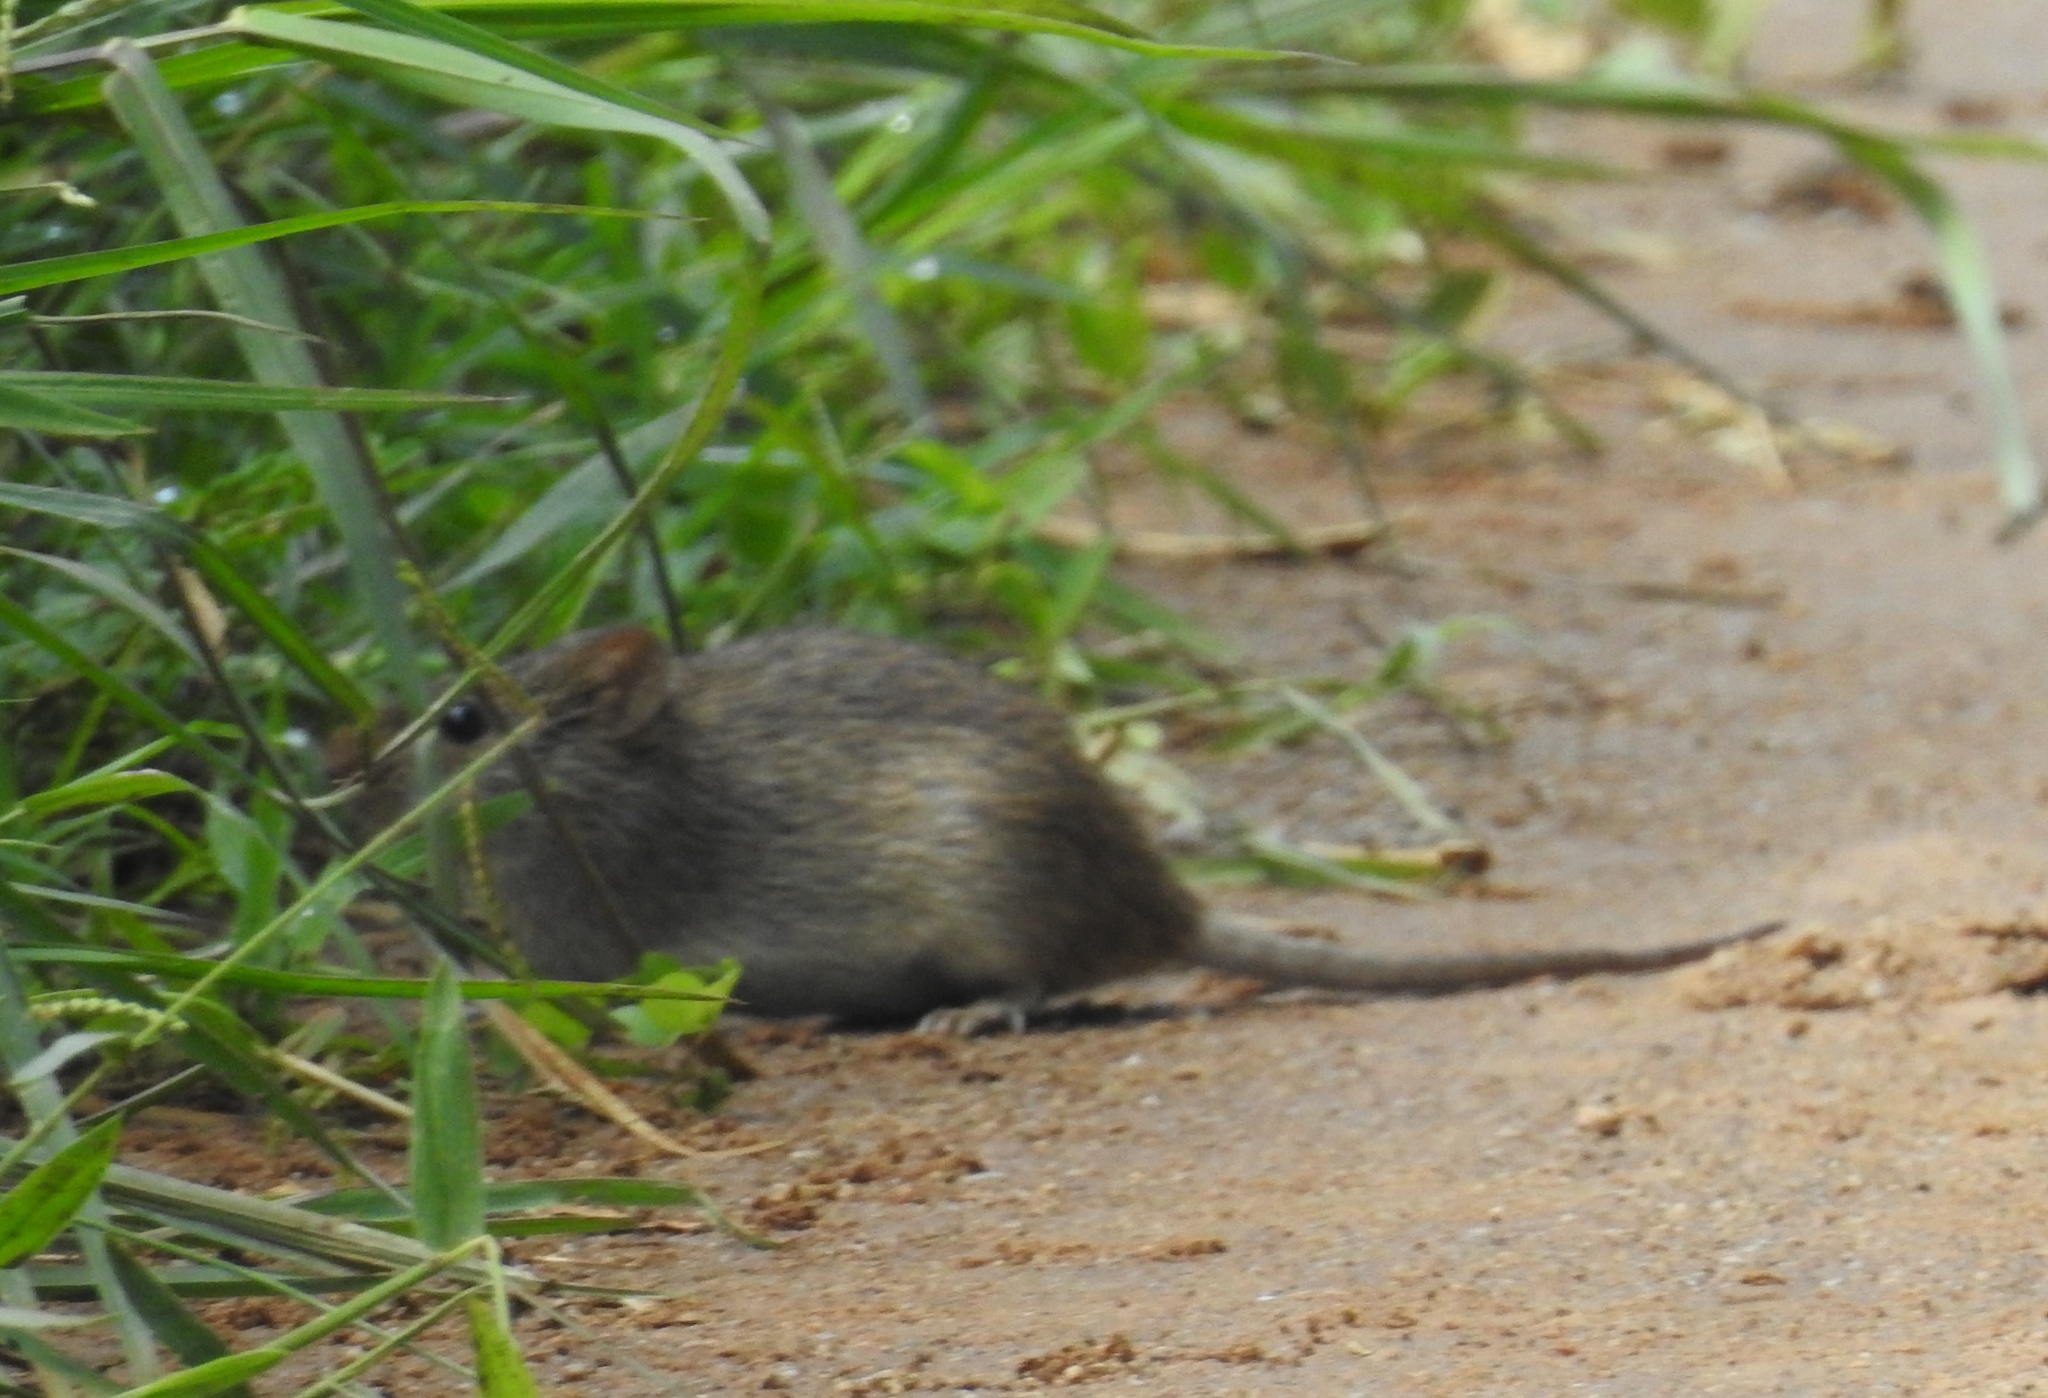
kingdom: Animalia
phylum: Chordata
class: Mammalia
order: Rodentia
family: Muridae
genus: Rattus
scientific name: Rattus rattus
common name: Black rat
